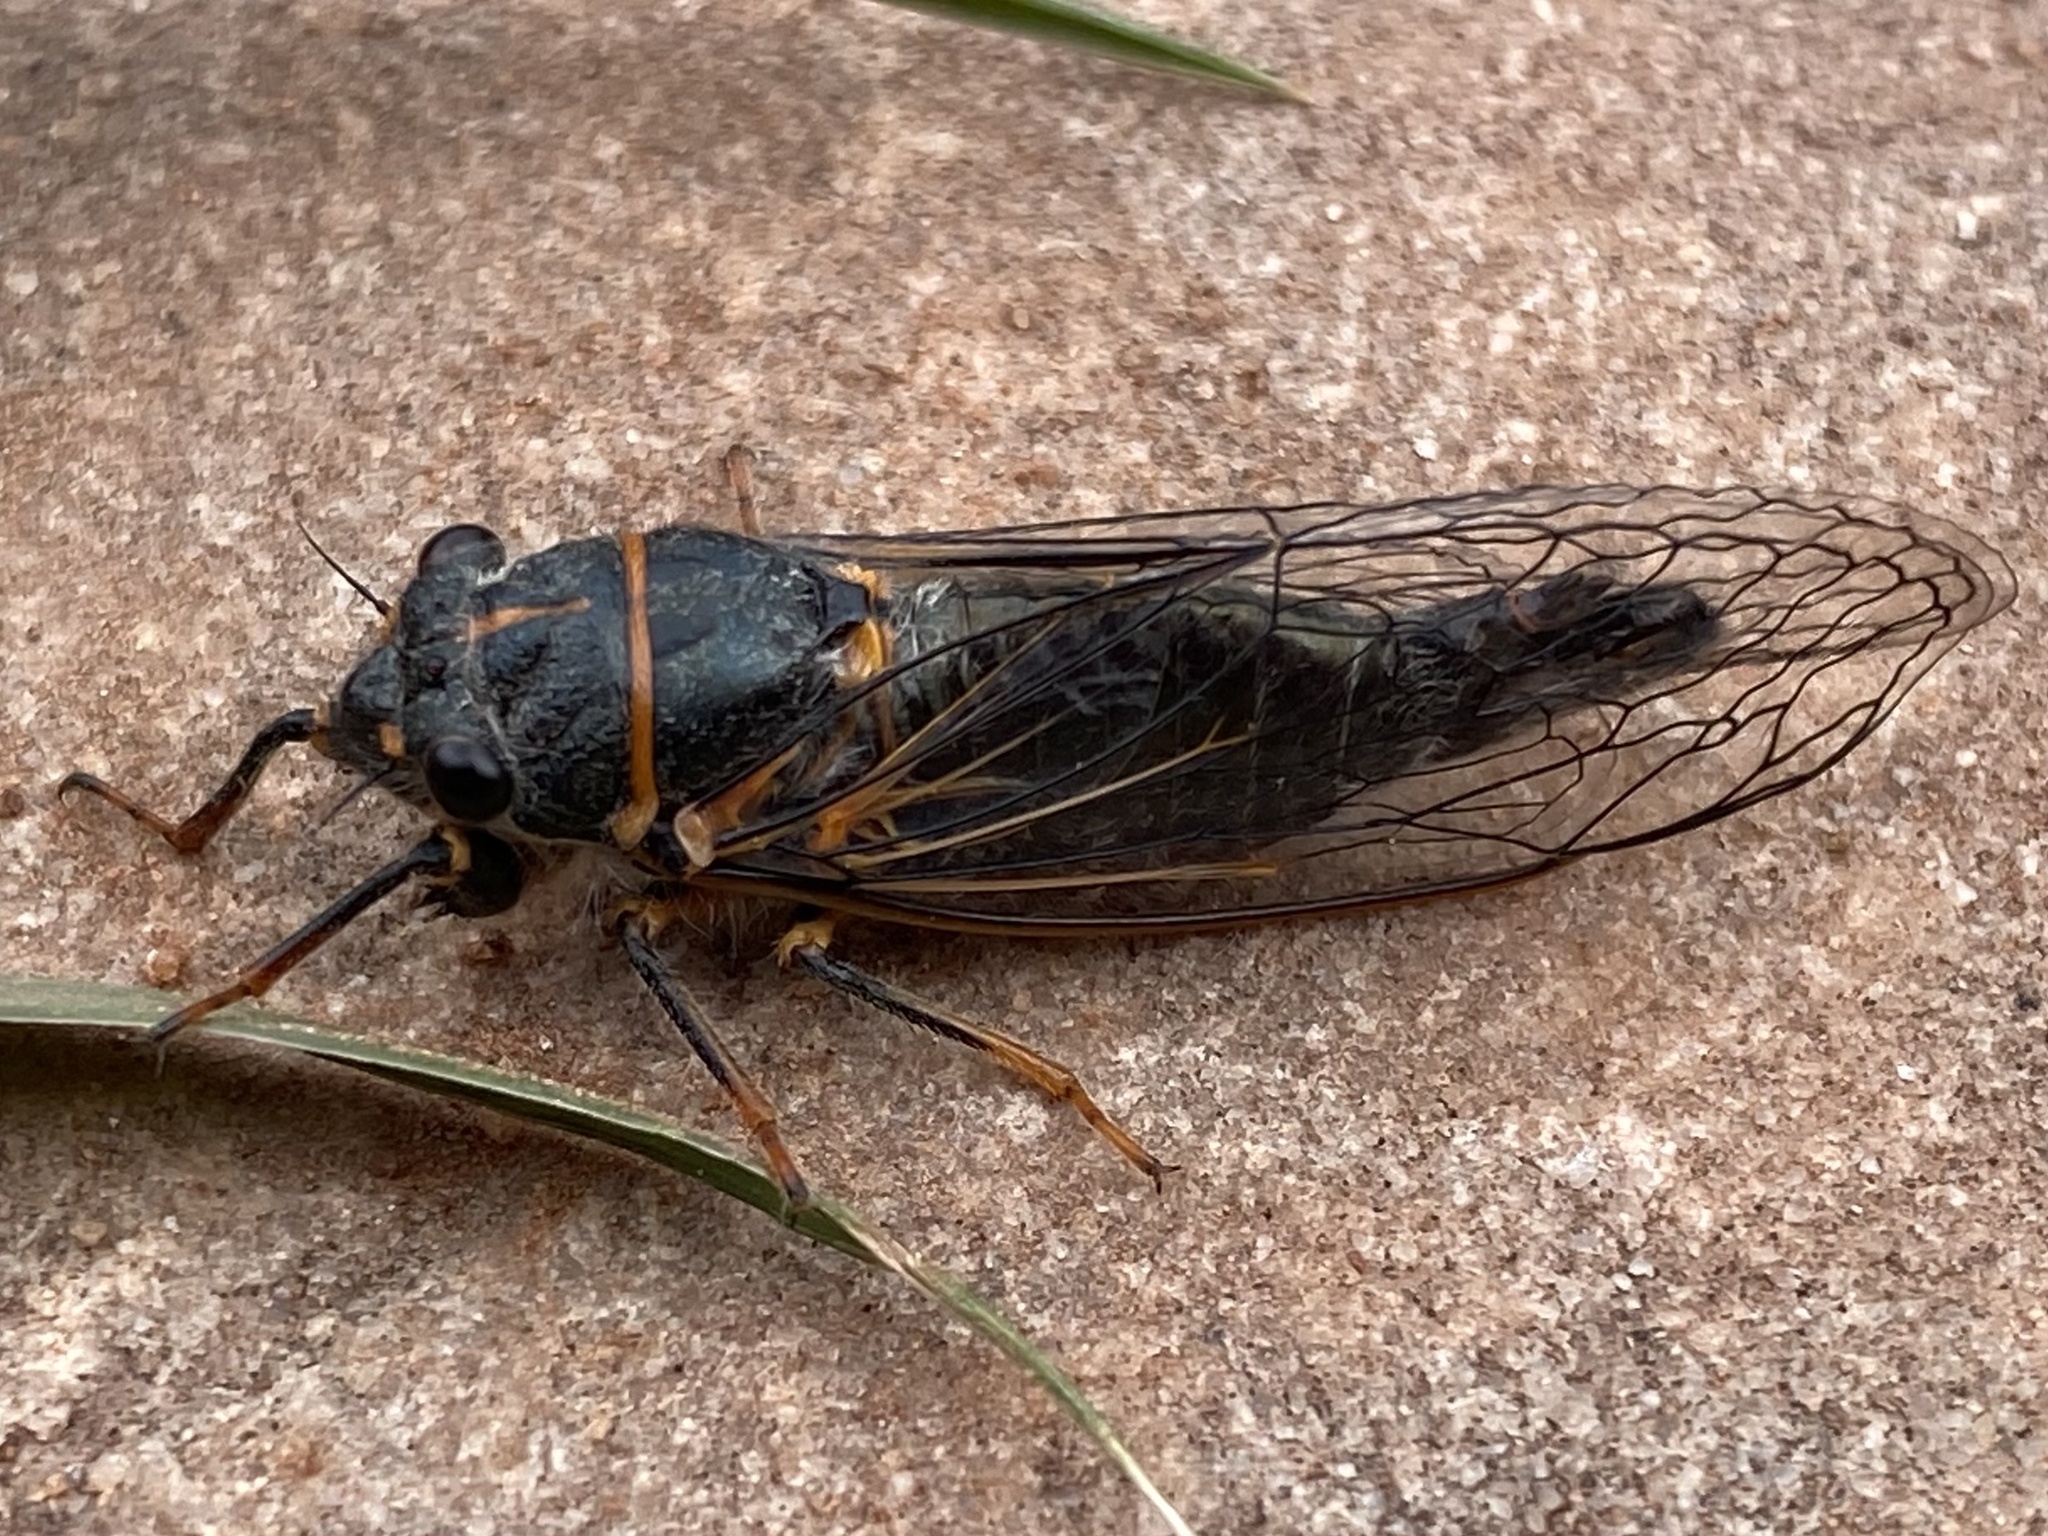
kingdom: Animalia
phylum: Arthropoda
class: Insecta
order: Hemiptera
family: Cicadidae
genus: Platypedia
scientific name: Platypedia
